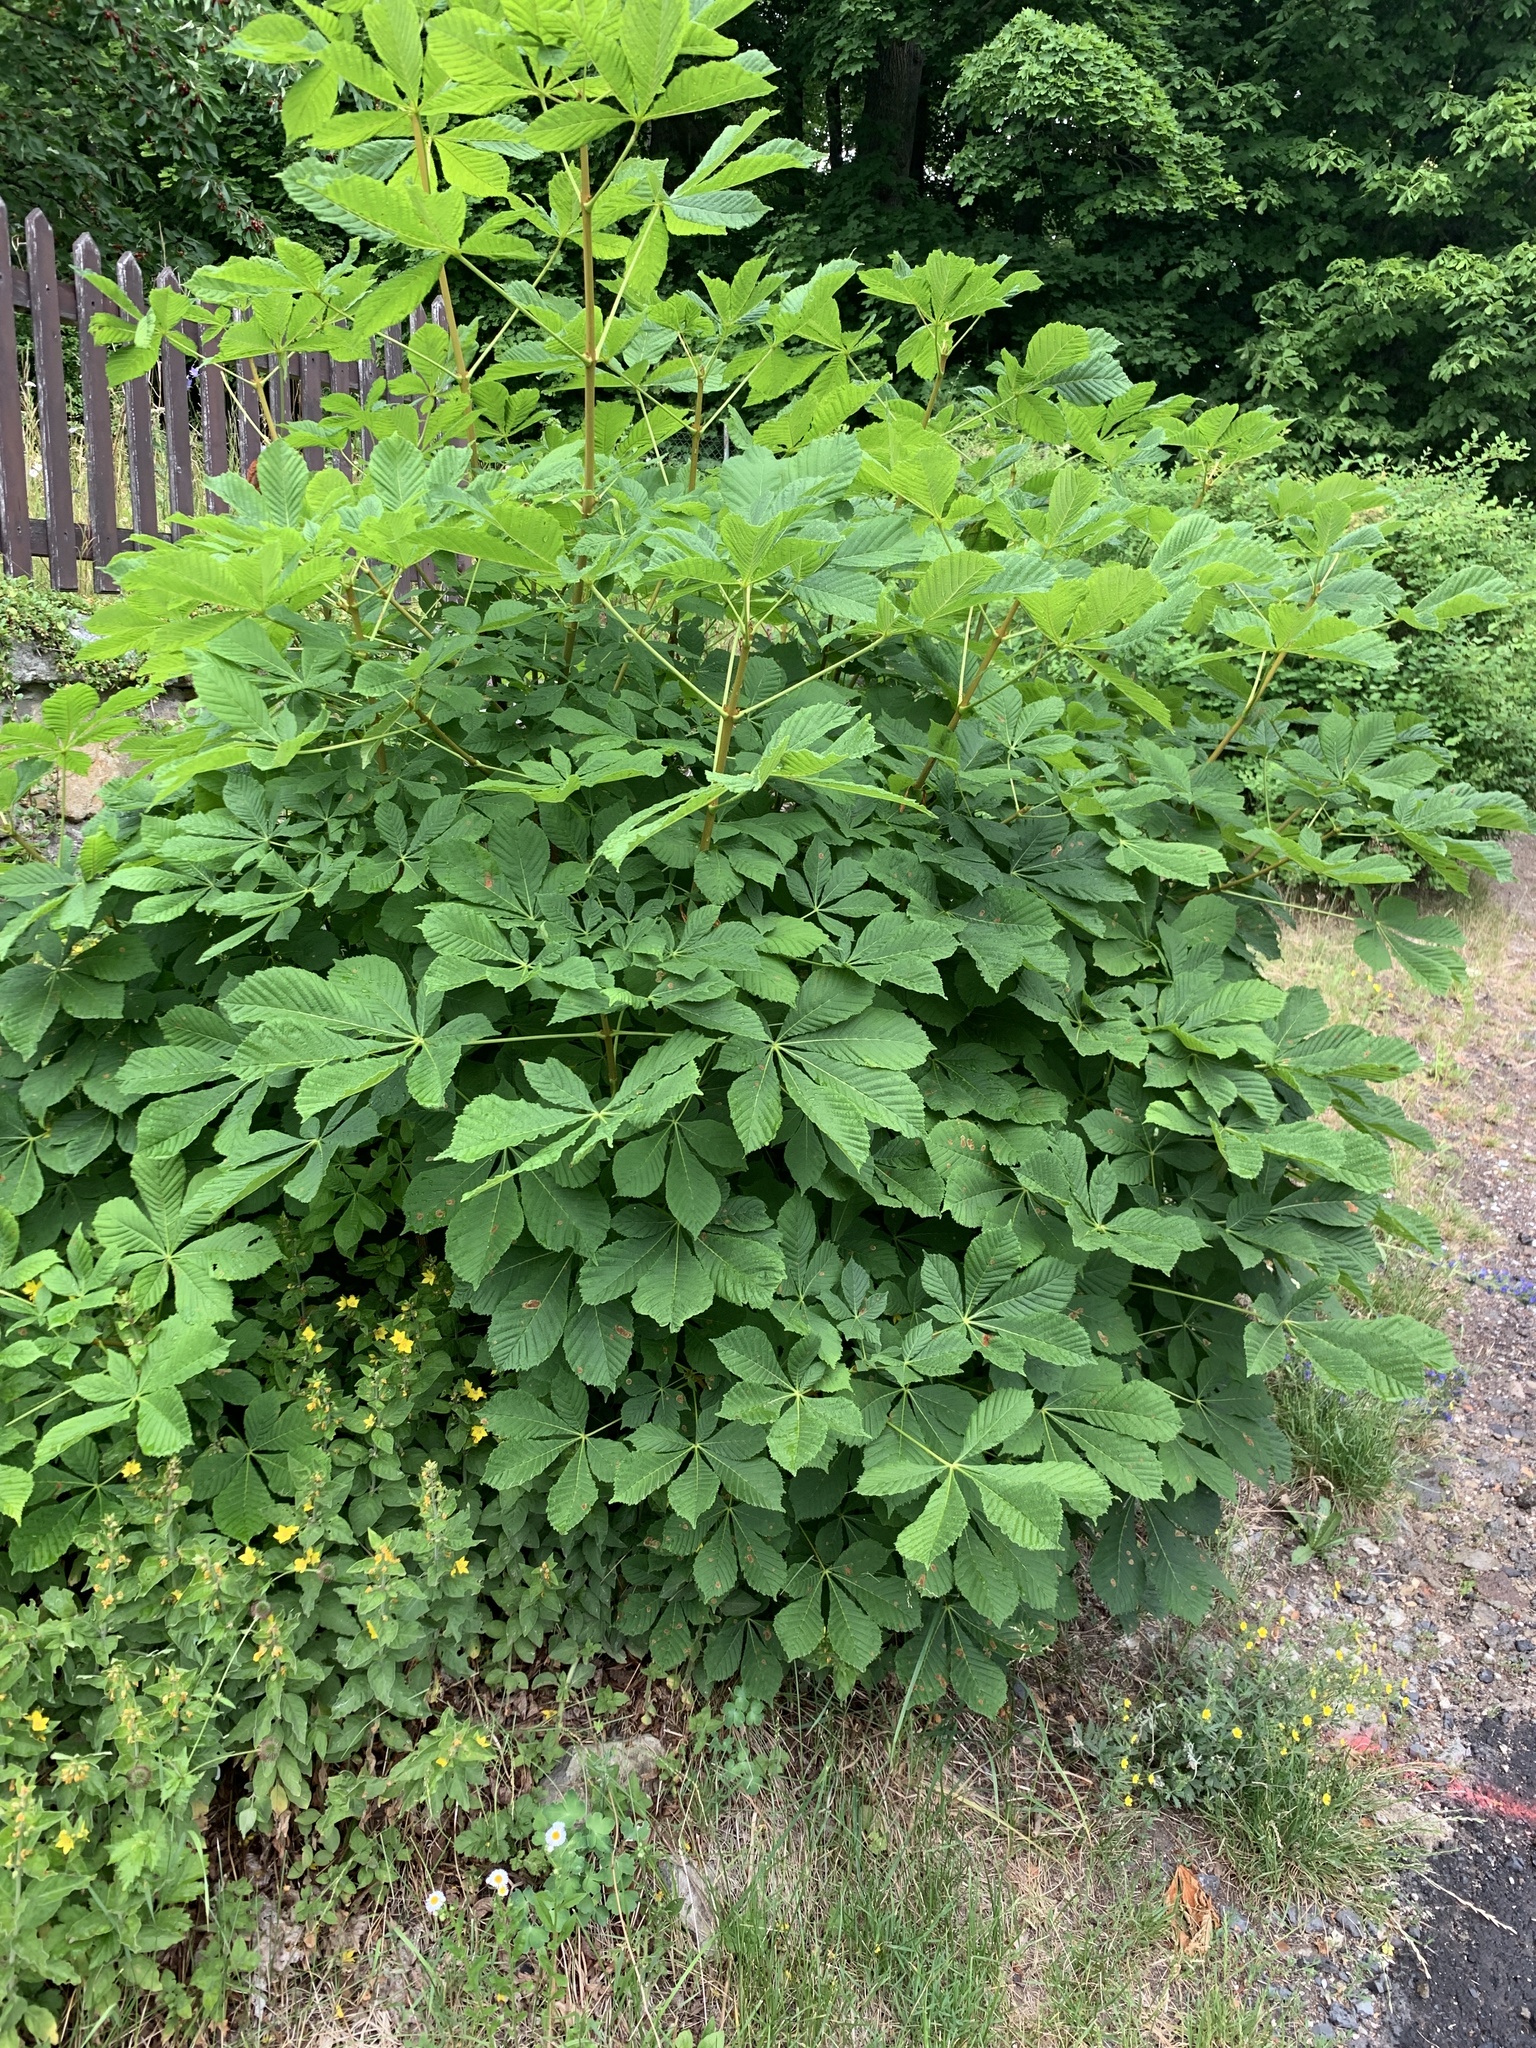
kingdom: Plantae
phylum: Tracheophyta
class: Magnoliopsida
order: Sapindales
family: Sapindaceae
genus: Aesculus
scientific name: Aesculus hippocastanum
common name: Horse-chestnut
